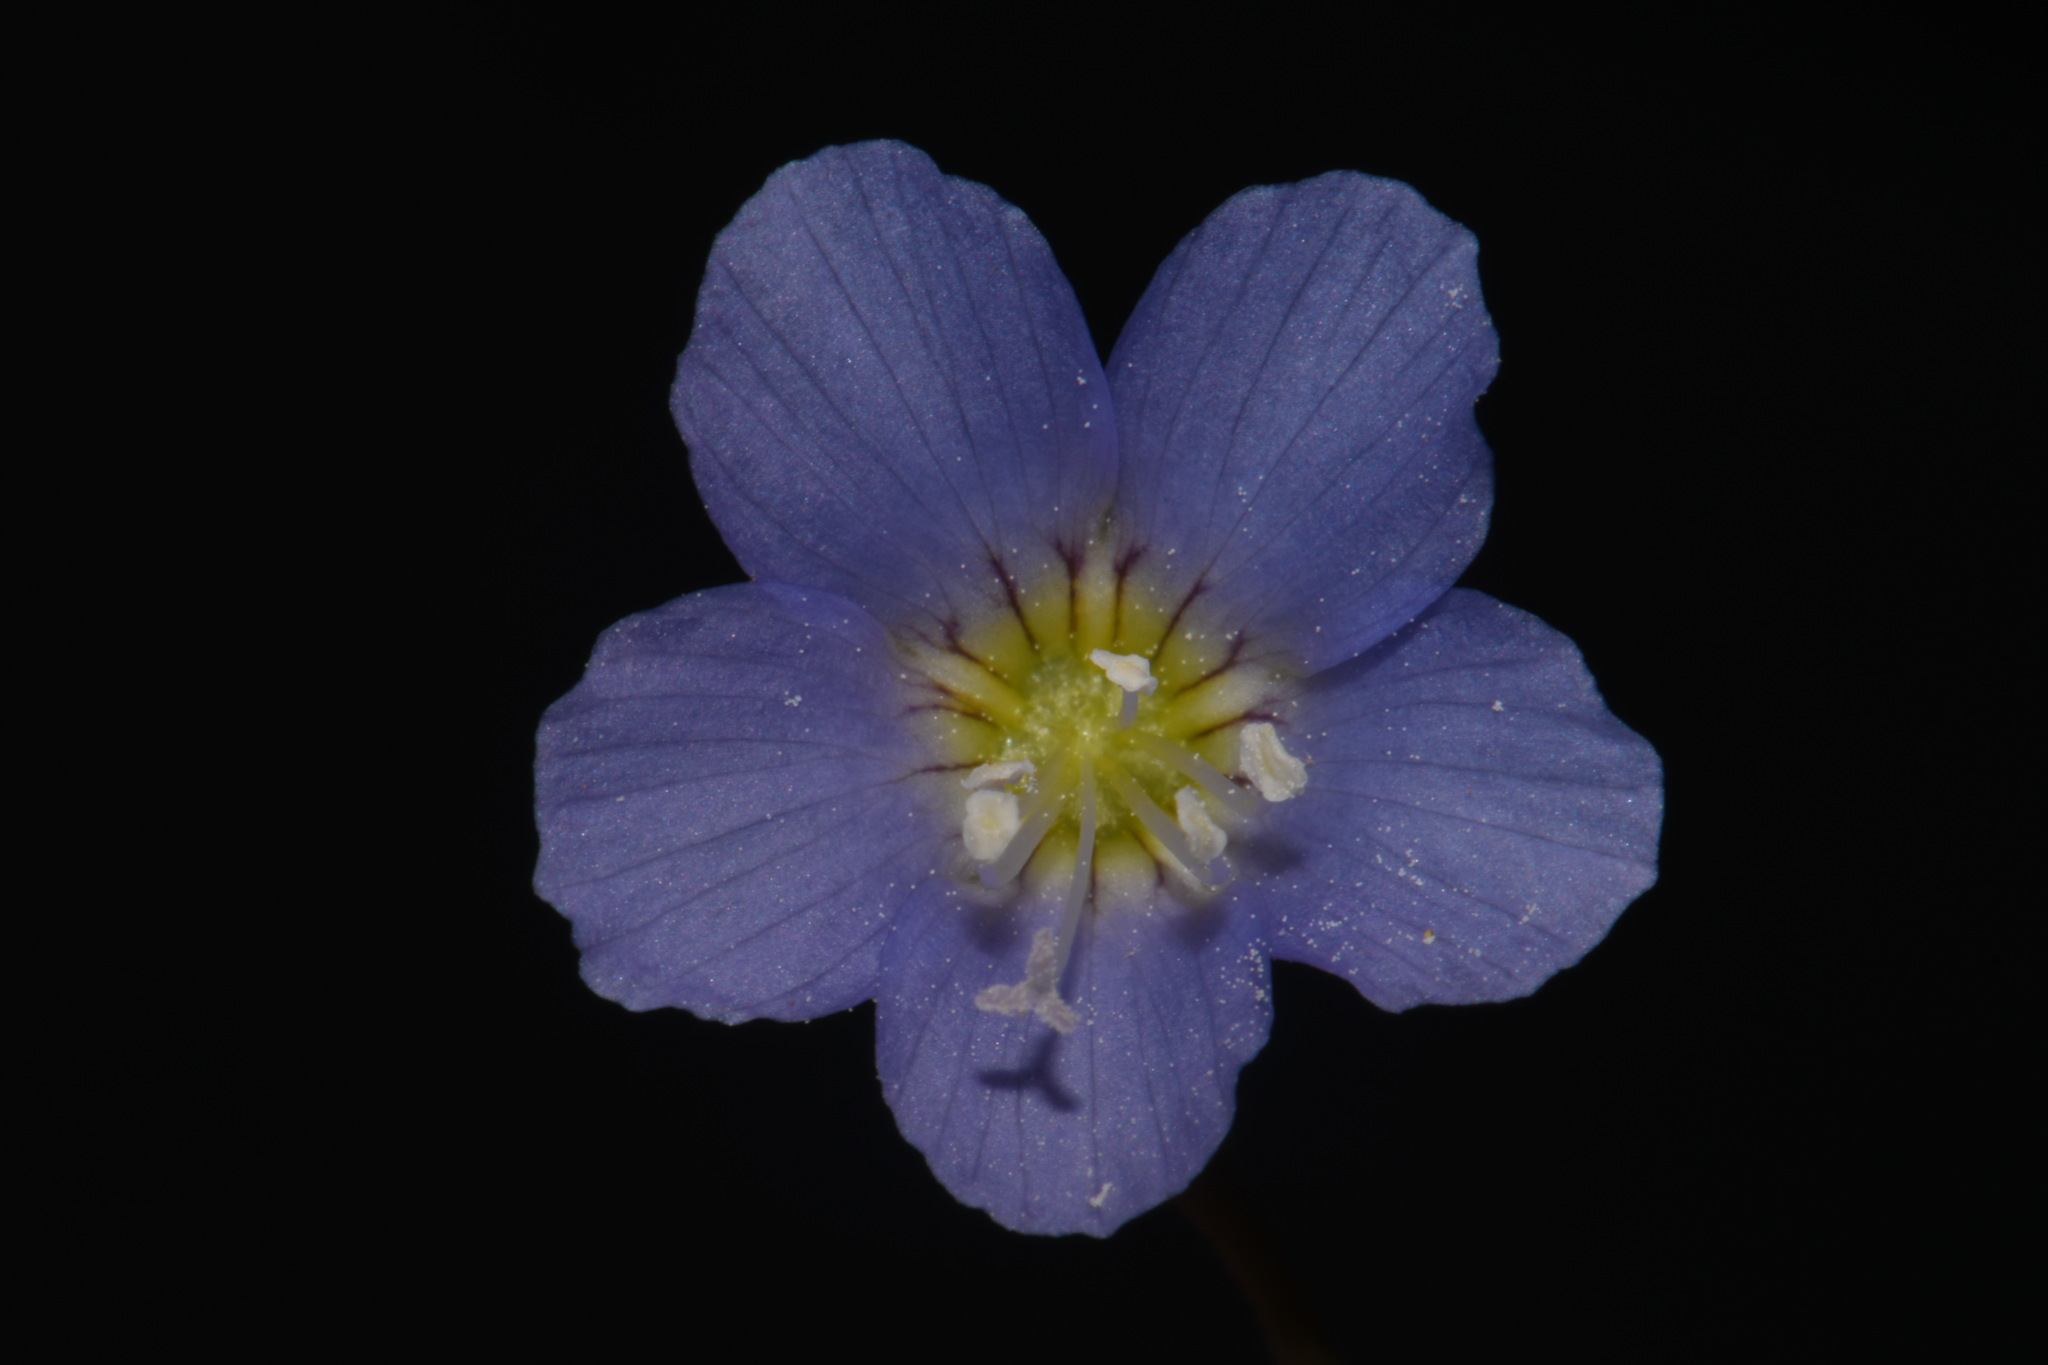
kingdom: Plantae
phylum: Tracheophyta
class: Magnoliopsida
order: Ericales
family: Polemoniaceae
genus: Polemonium
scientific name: Polemonium reptans
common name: Creeping jacob's-ladder
